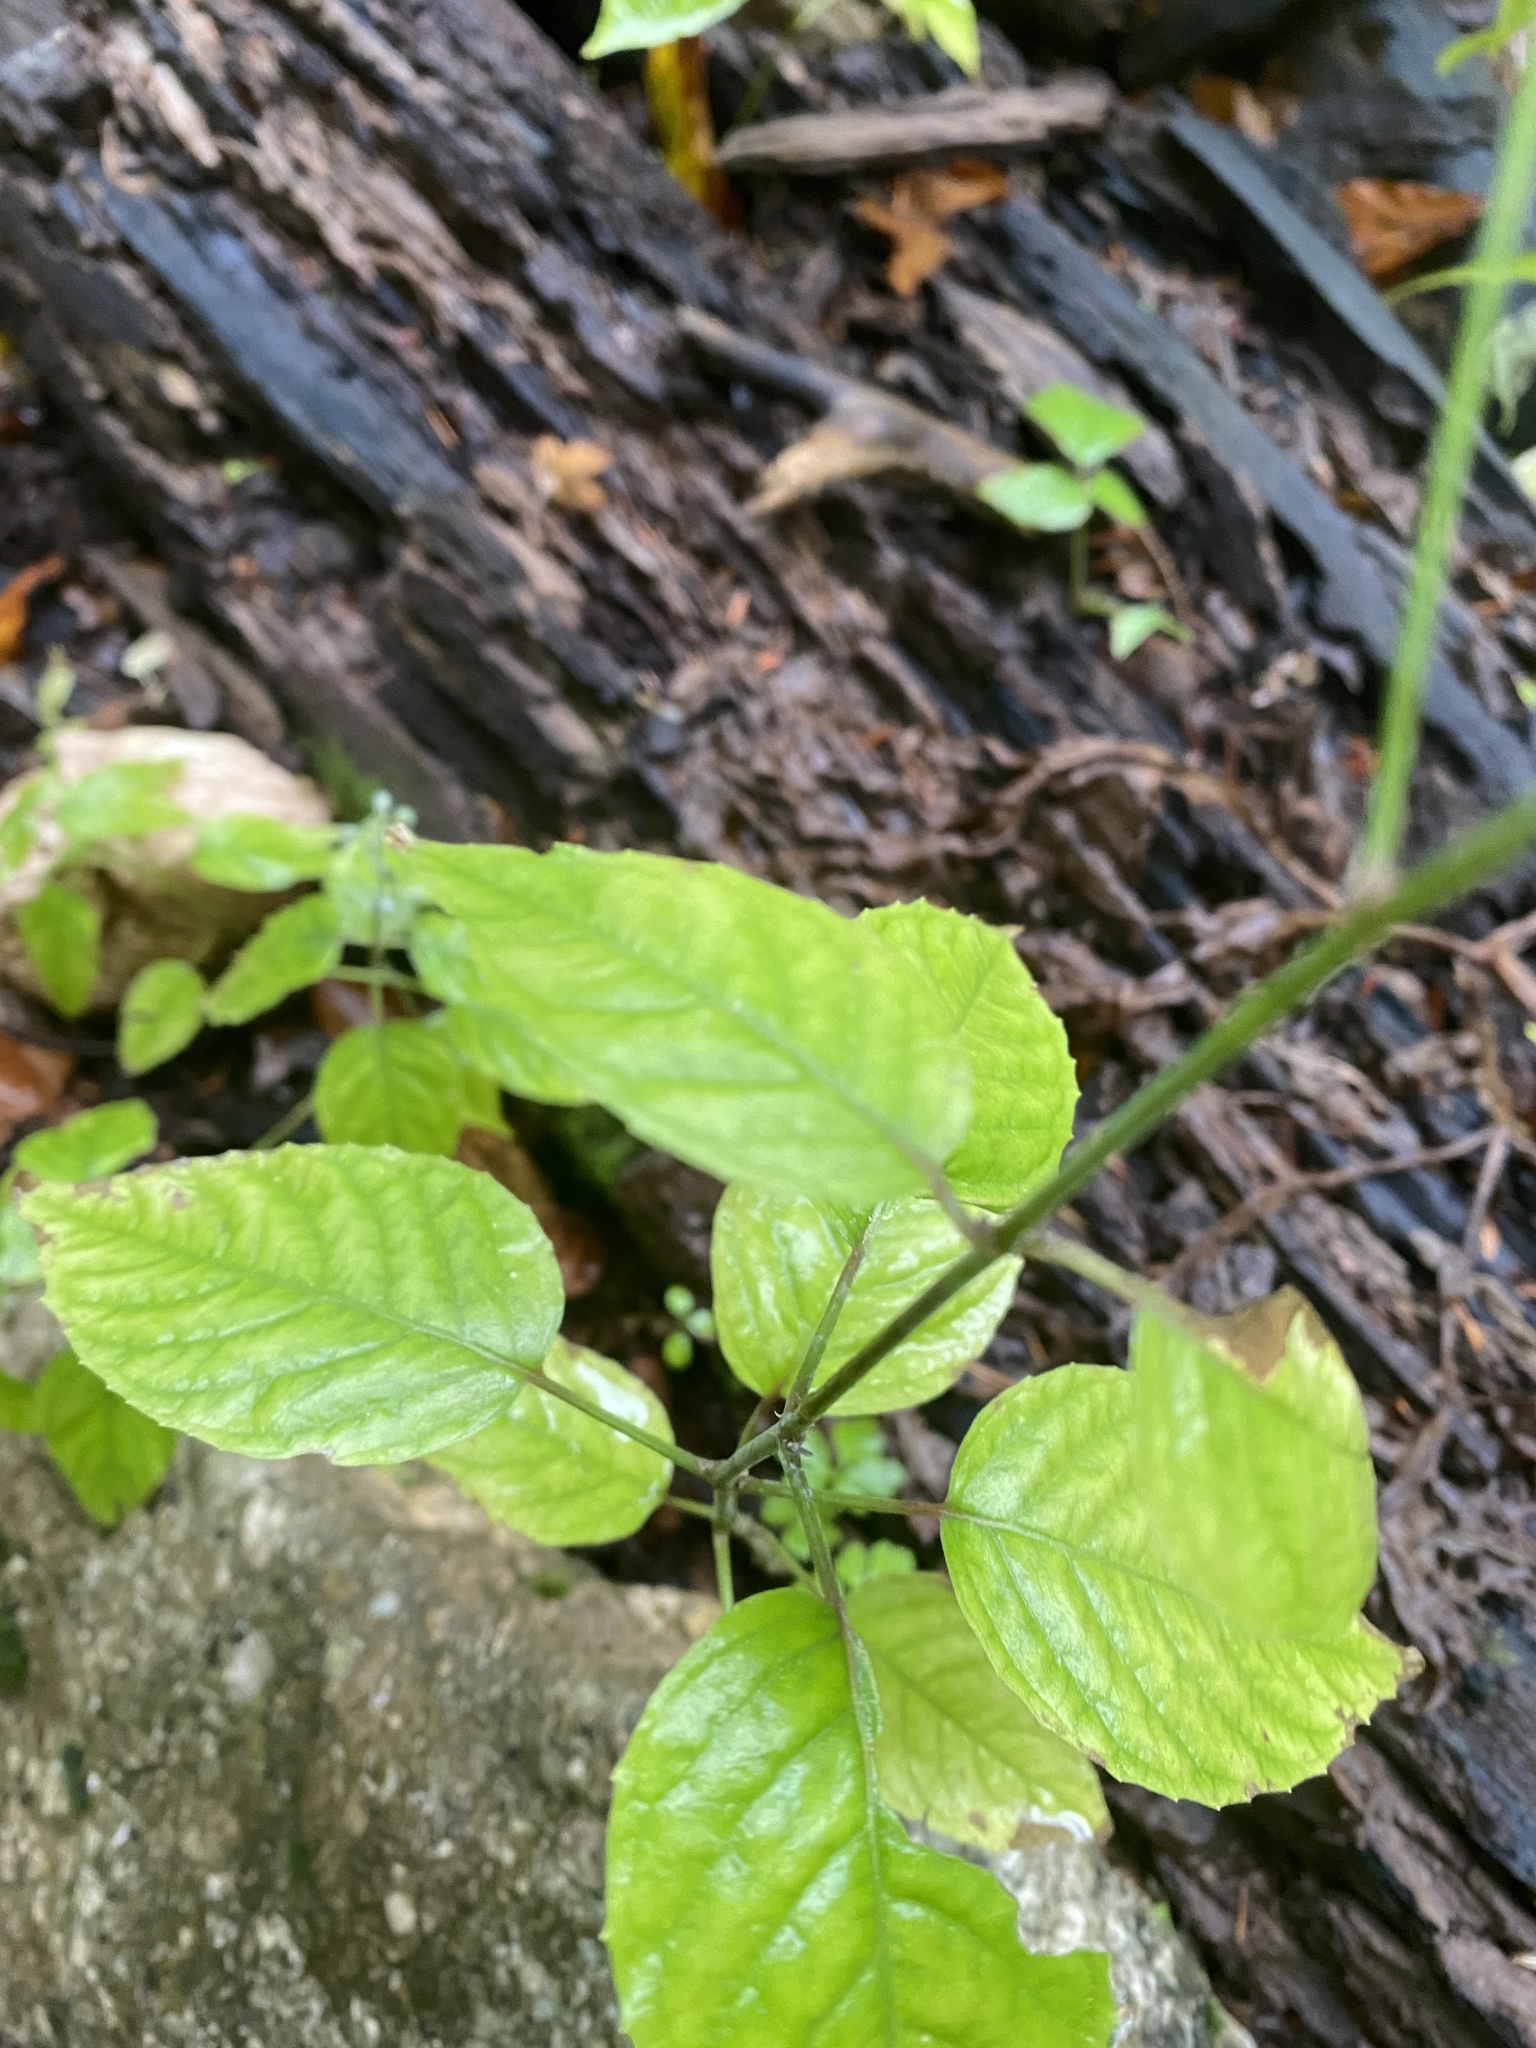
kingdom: Plantae
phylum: Tracheophyta
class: Magnoliopsida
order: Myrtales
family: Onagraceae
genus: Circaea
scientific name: Circaea lutetiana
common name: Enchanter's-nightshade
